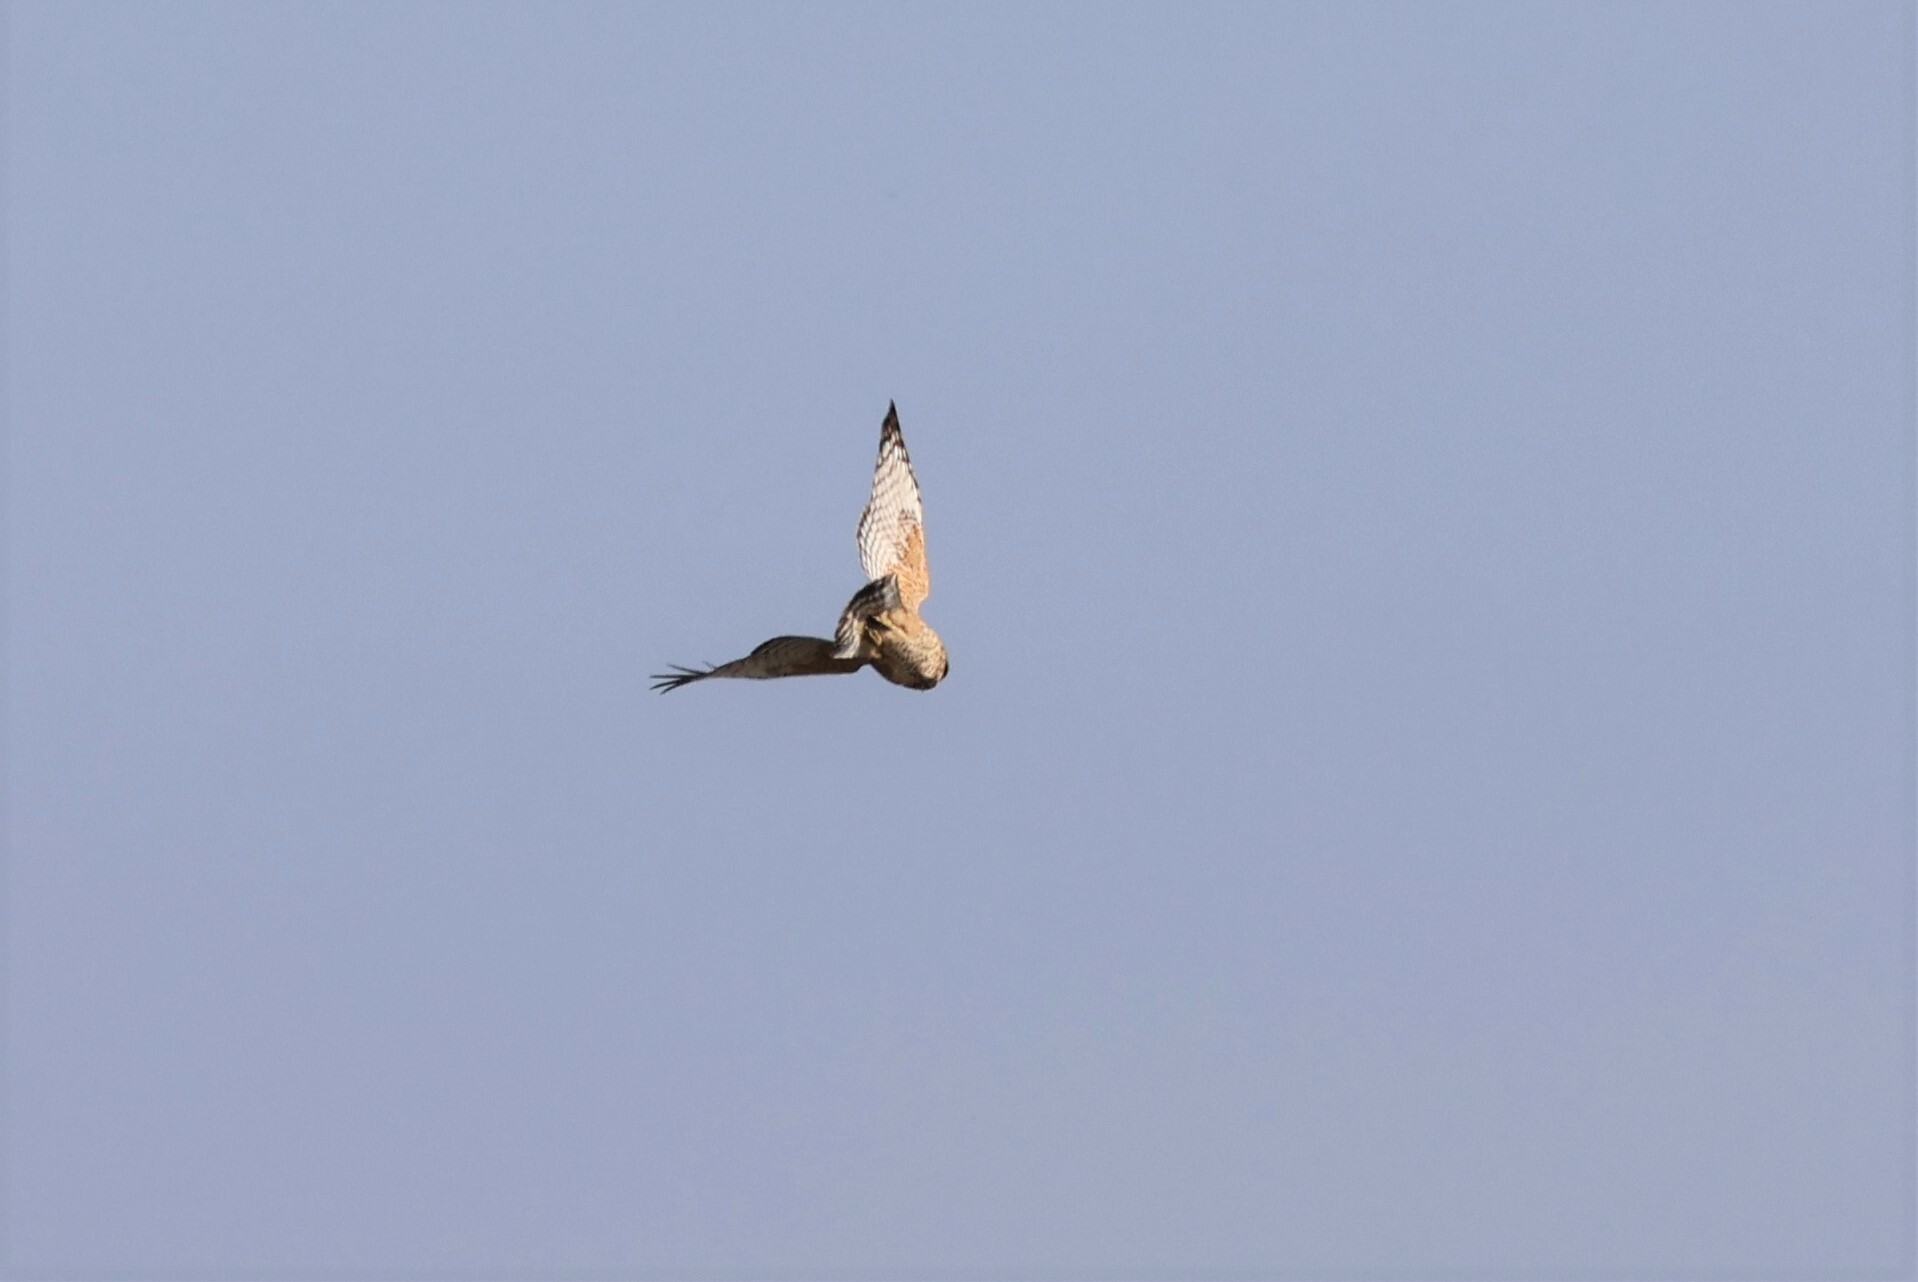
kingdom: Animalia
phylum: Chordata
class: Aves
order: Accipitriformes
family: Accipitridae
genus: Buteo
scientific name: Buteo lineatus
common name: Red-shouldered hawk
